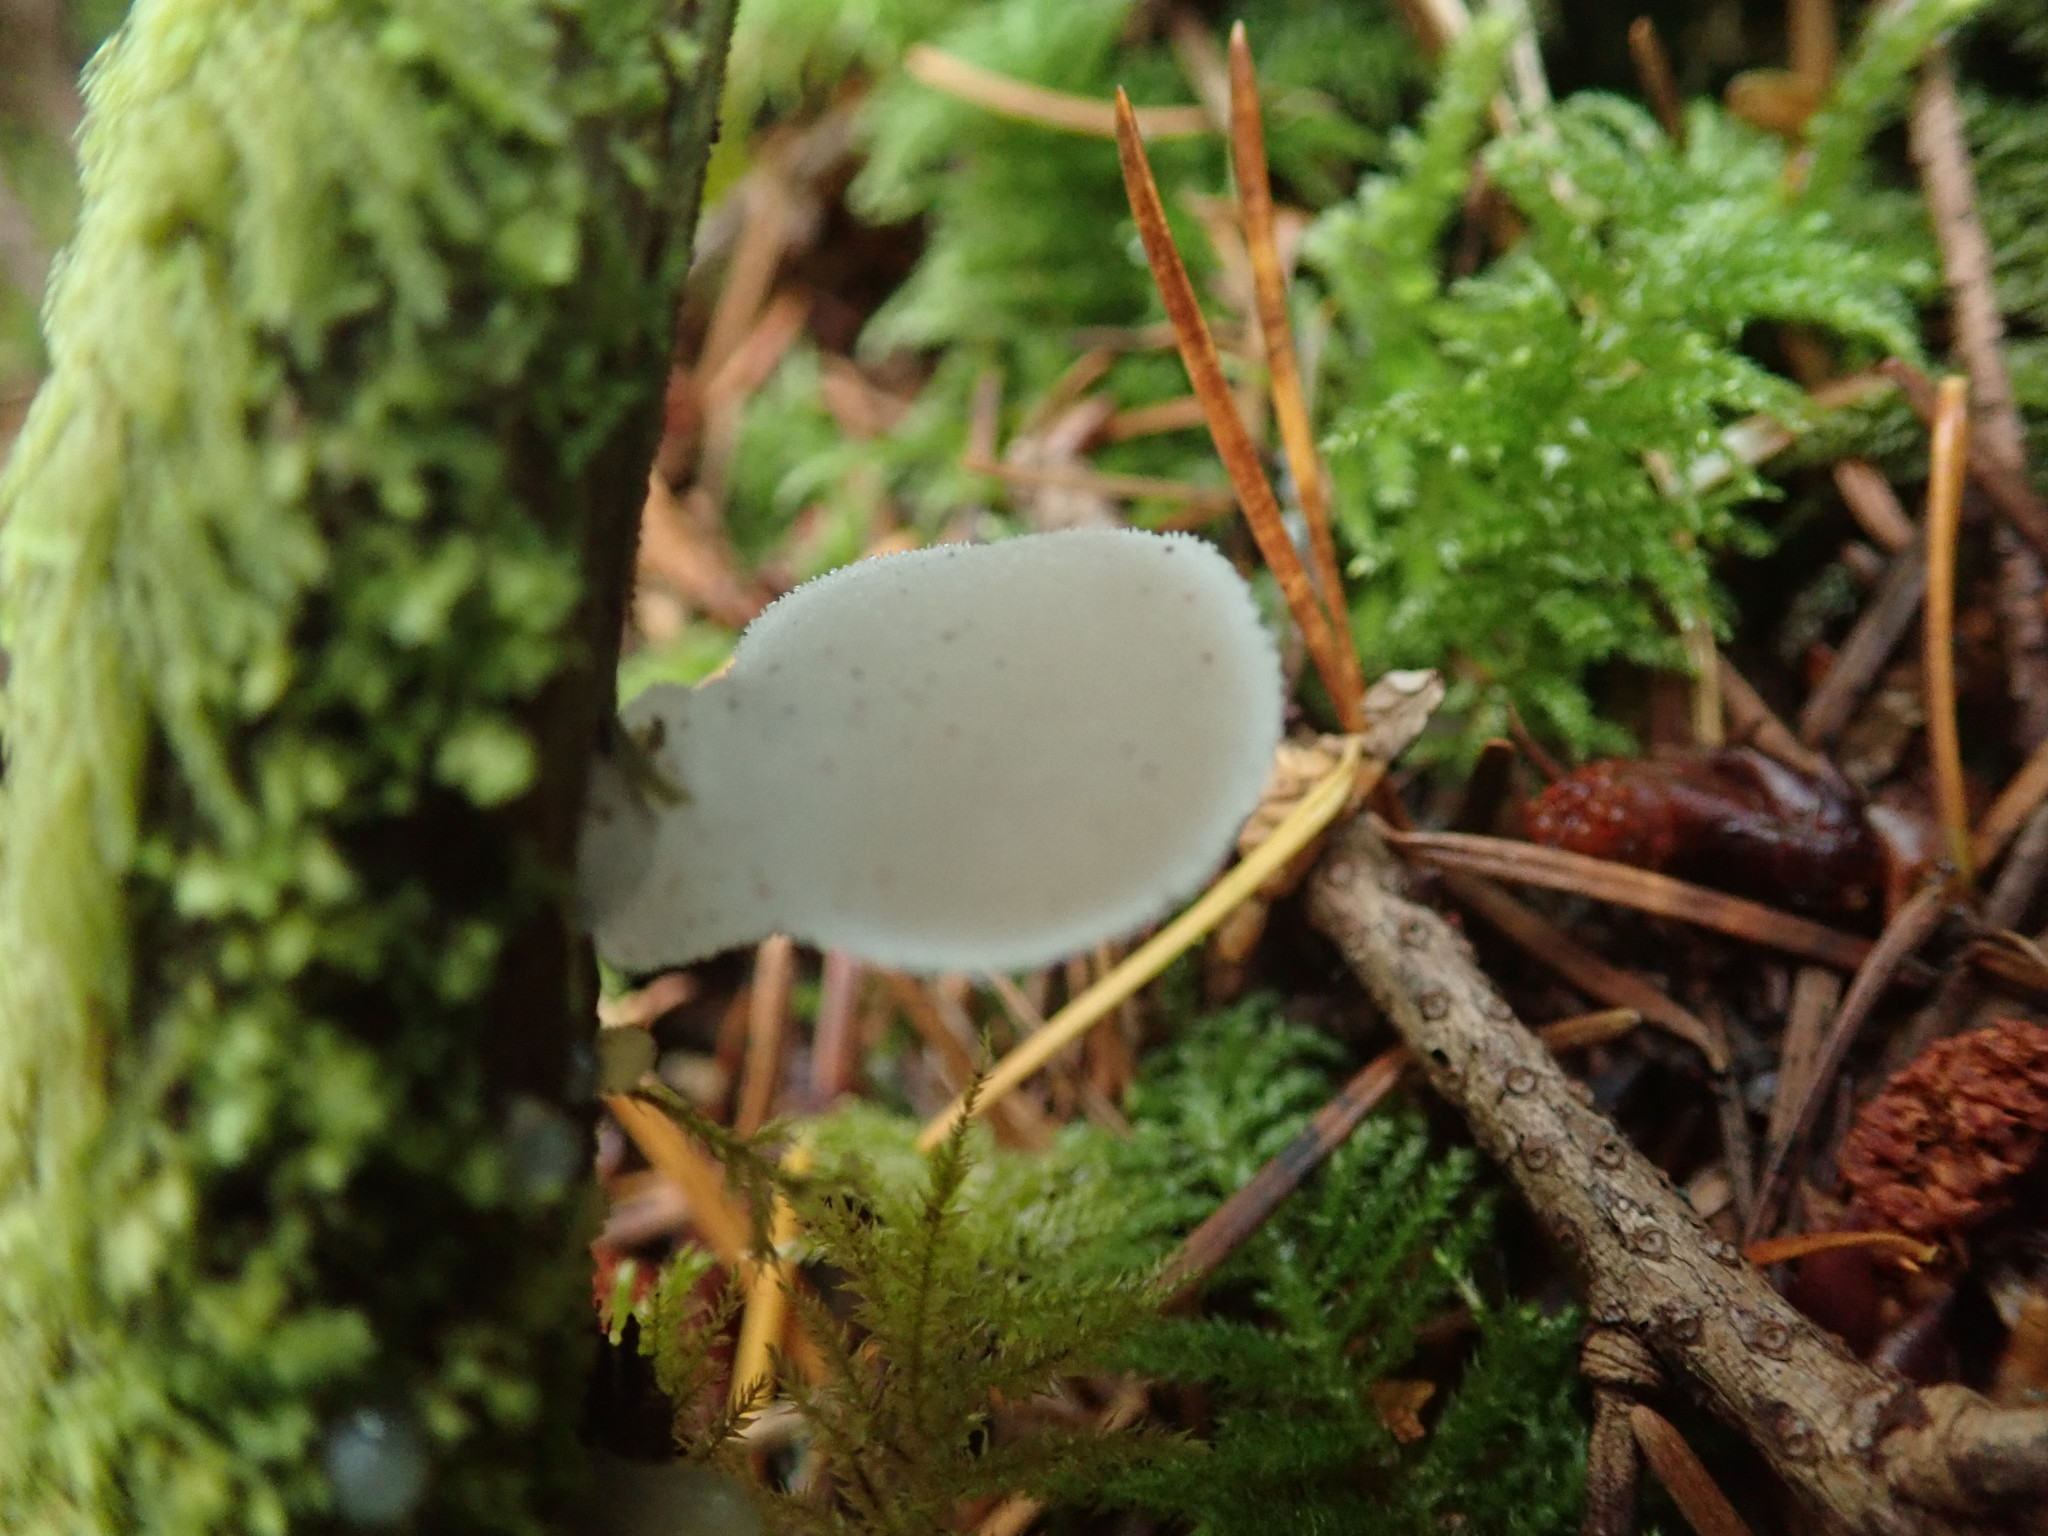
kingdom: Fungi
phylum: Basidiomycota
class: Agaricomycetes
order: Auriculariales
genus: Pseudohydnum
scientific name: Pseudohydnum gelatinosum
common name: Jelly tongue
